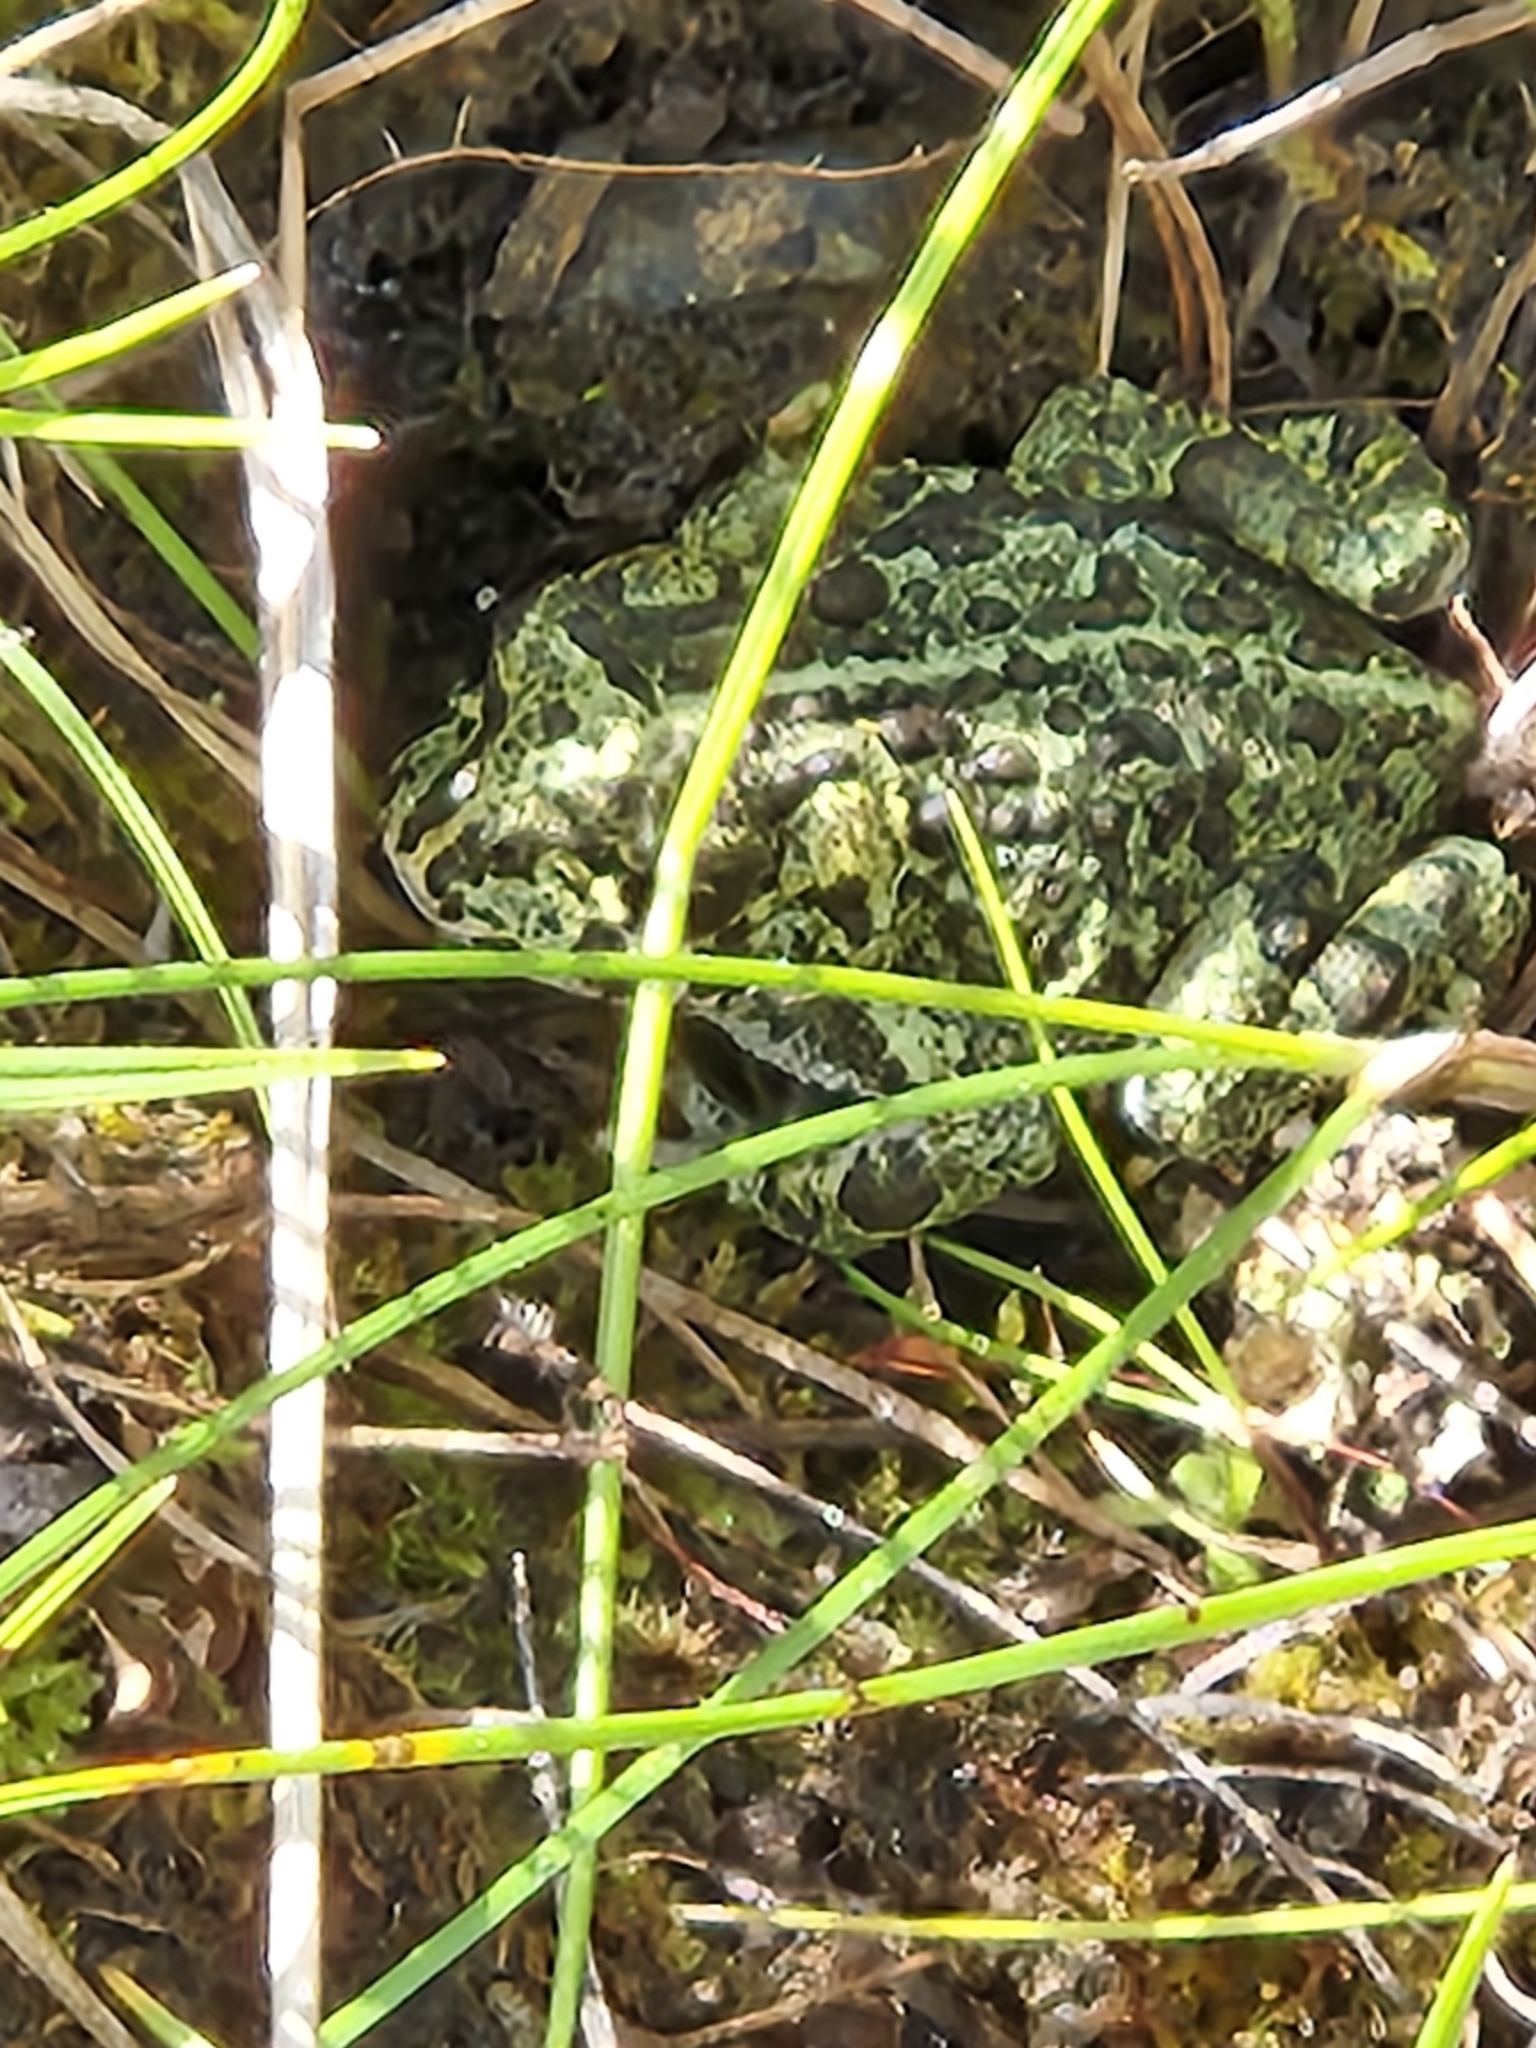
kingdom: Animalia
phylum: Chordata
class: Amphibia
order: Anura
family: Bufonidae
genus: Anaxyrus
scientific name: Anaxyrus boreas
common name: Western toad
